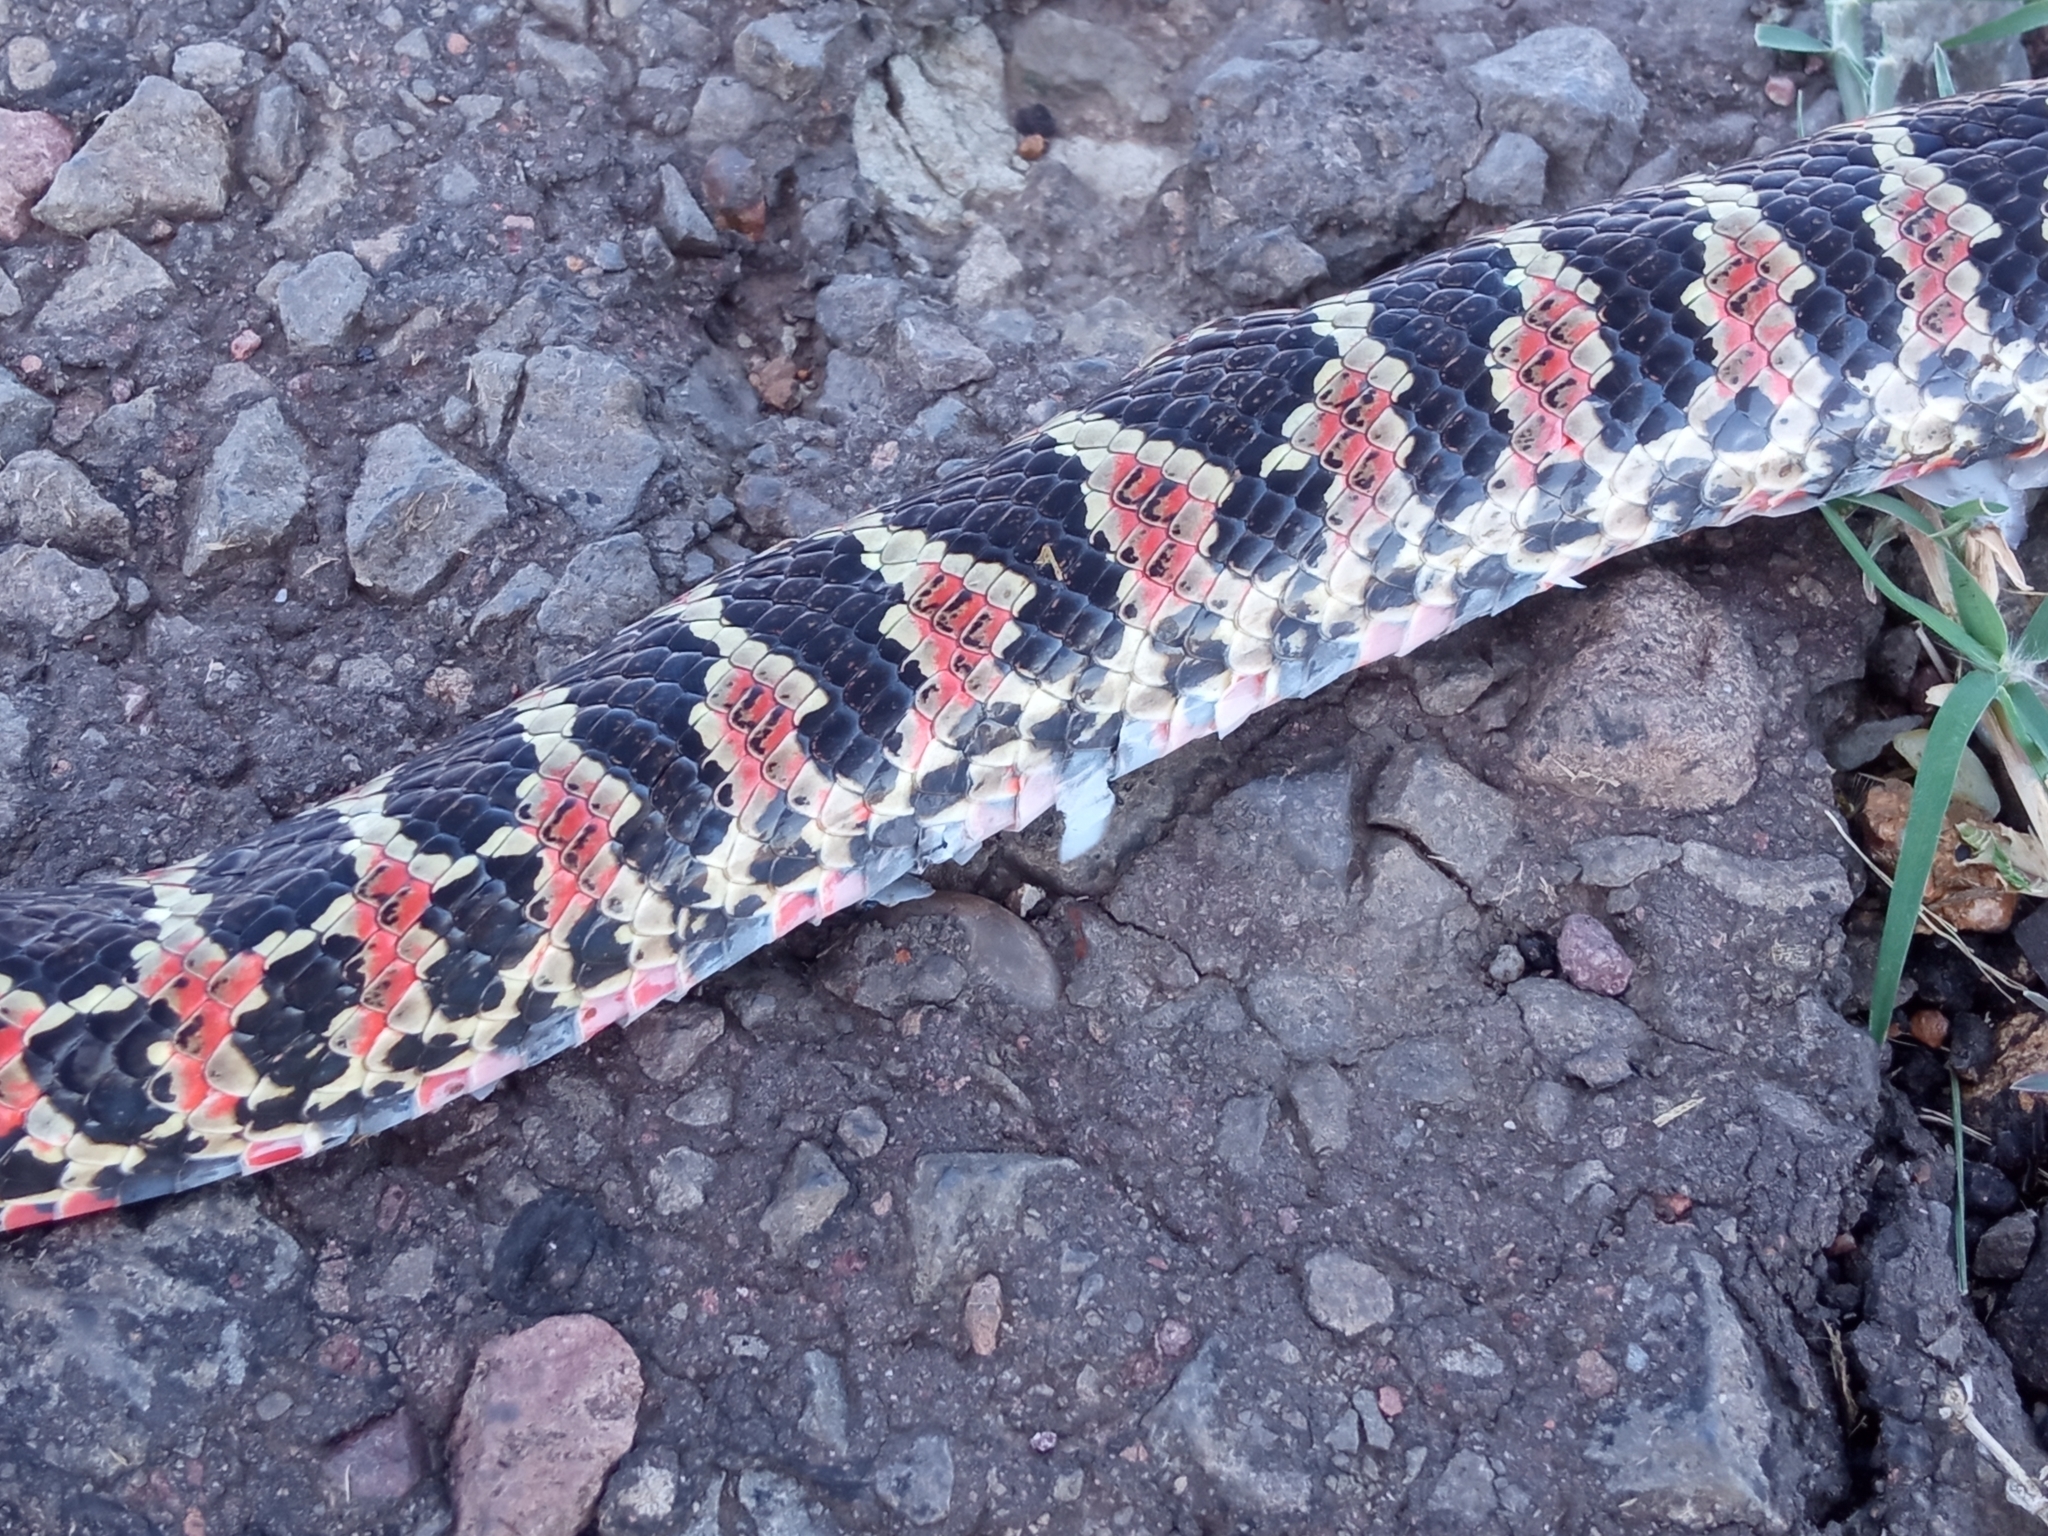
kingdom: Animalia
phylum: Chordata
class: Squamata
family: Colubridae
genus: Xenodon
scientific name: Xenodon dorbignyi
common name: South american hognose snake
